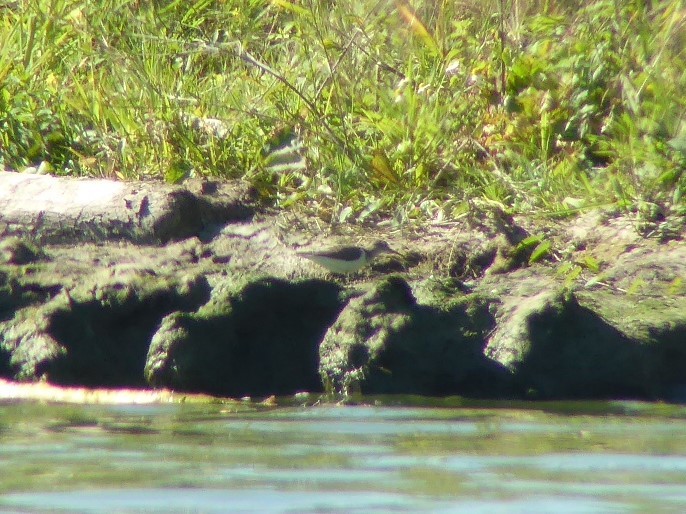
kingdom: Animalia
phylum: Chordata
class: Aves
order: Charadriiformes
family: Scolopacidae
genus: Actitis
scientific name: Actitis hypoleucos
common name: Common sandpiper
